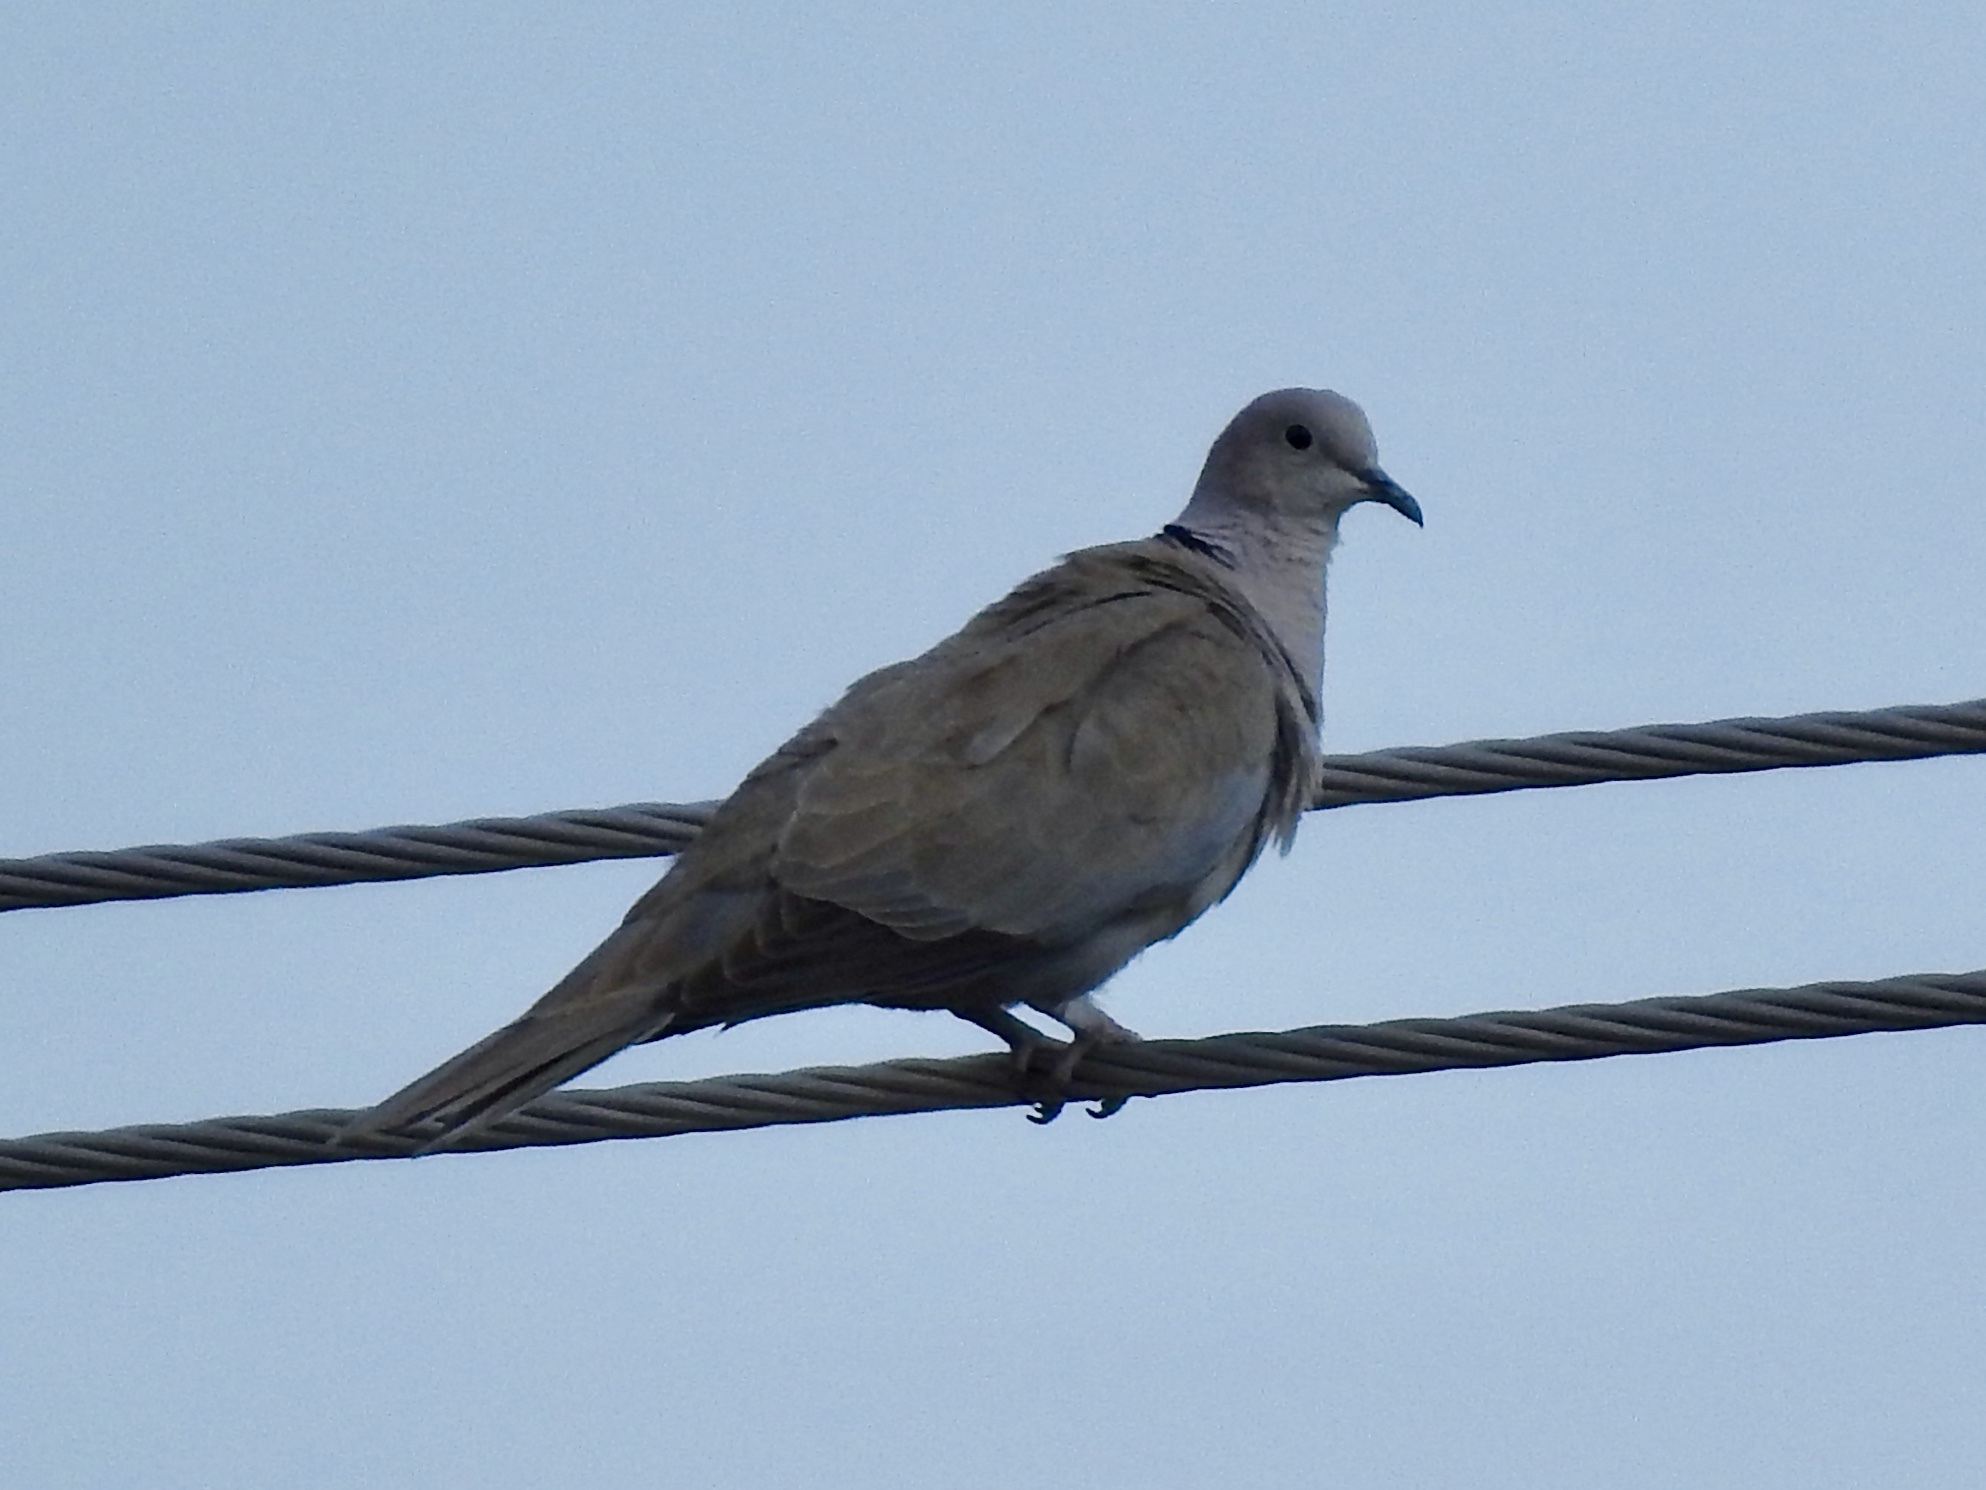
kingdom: Animalia
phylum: Chordata
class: Aves
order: Columbiformes
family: Columbidae
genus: Streptopelia
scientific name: Streptopelia decaocto
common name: Eurasian collared dove
